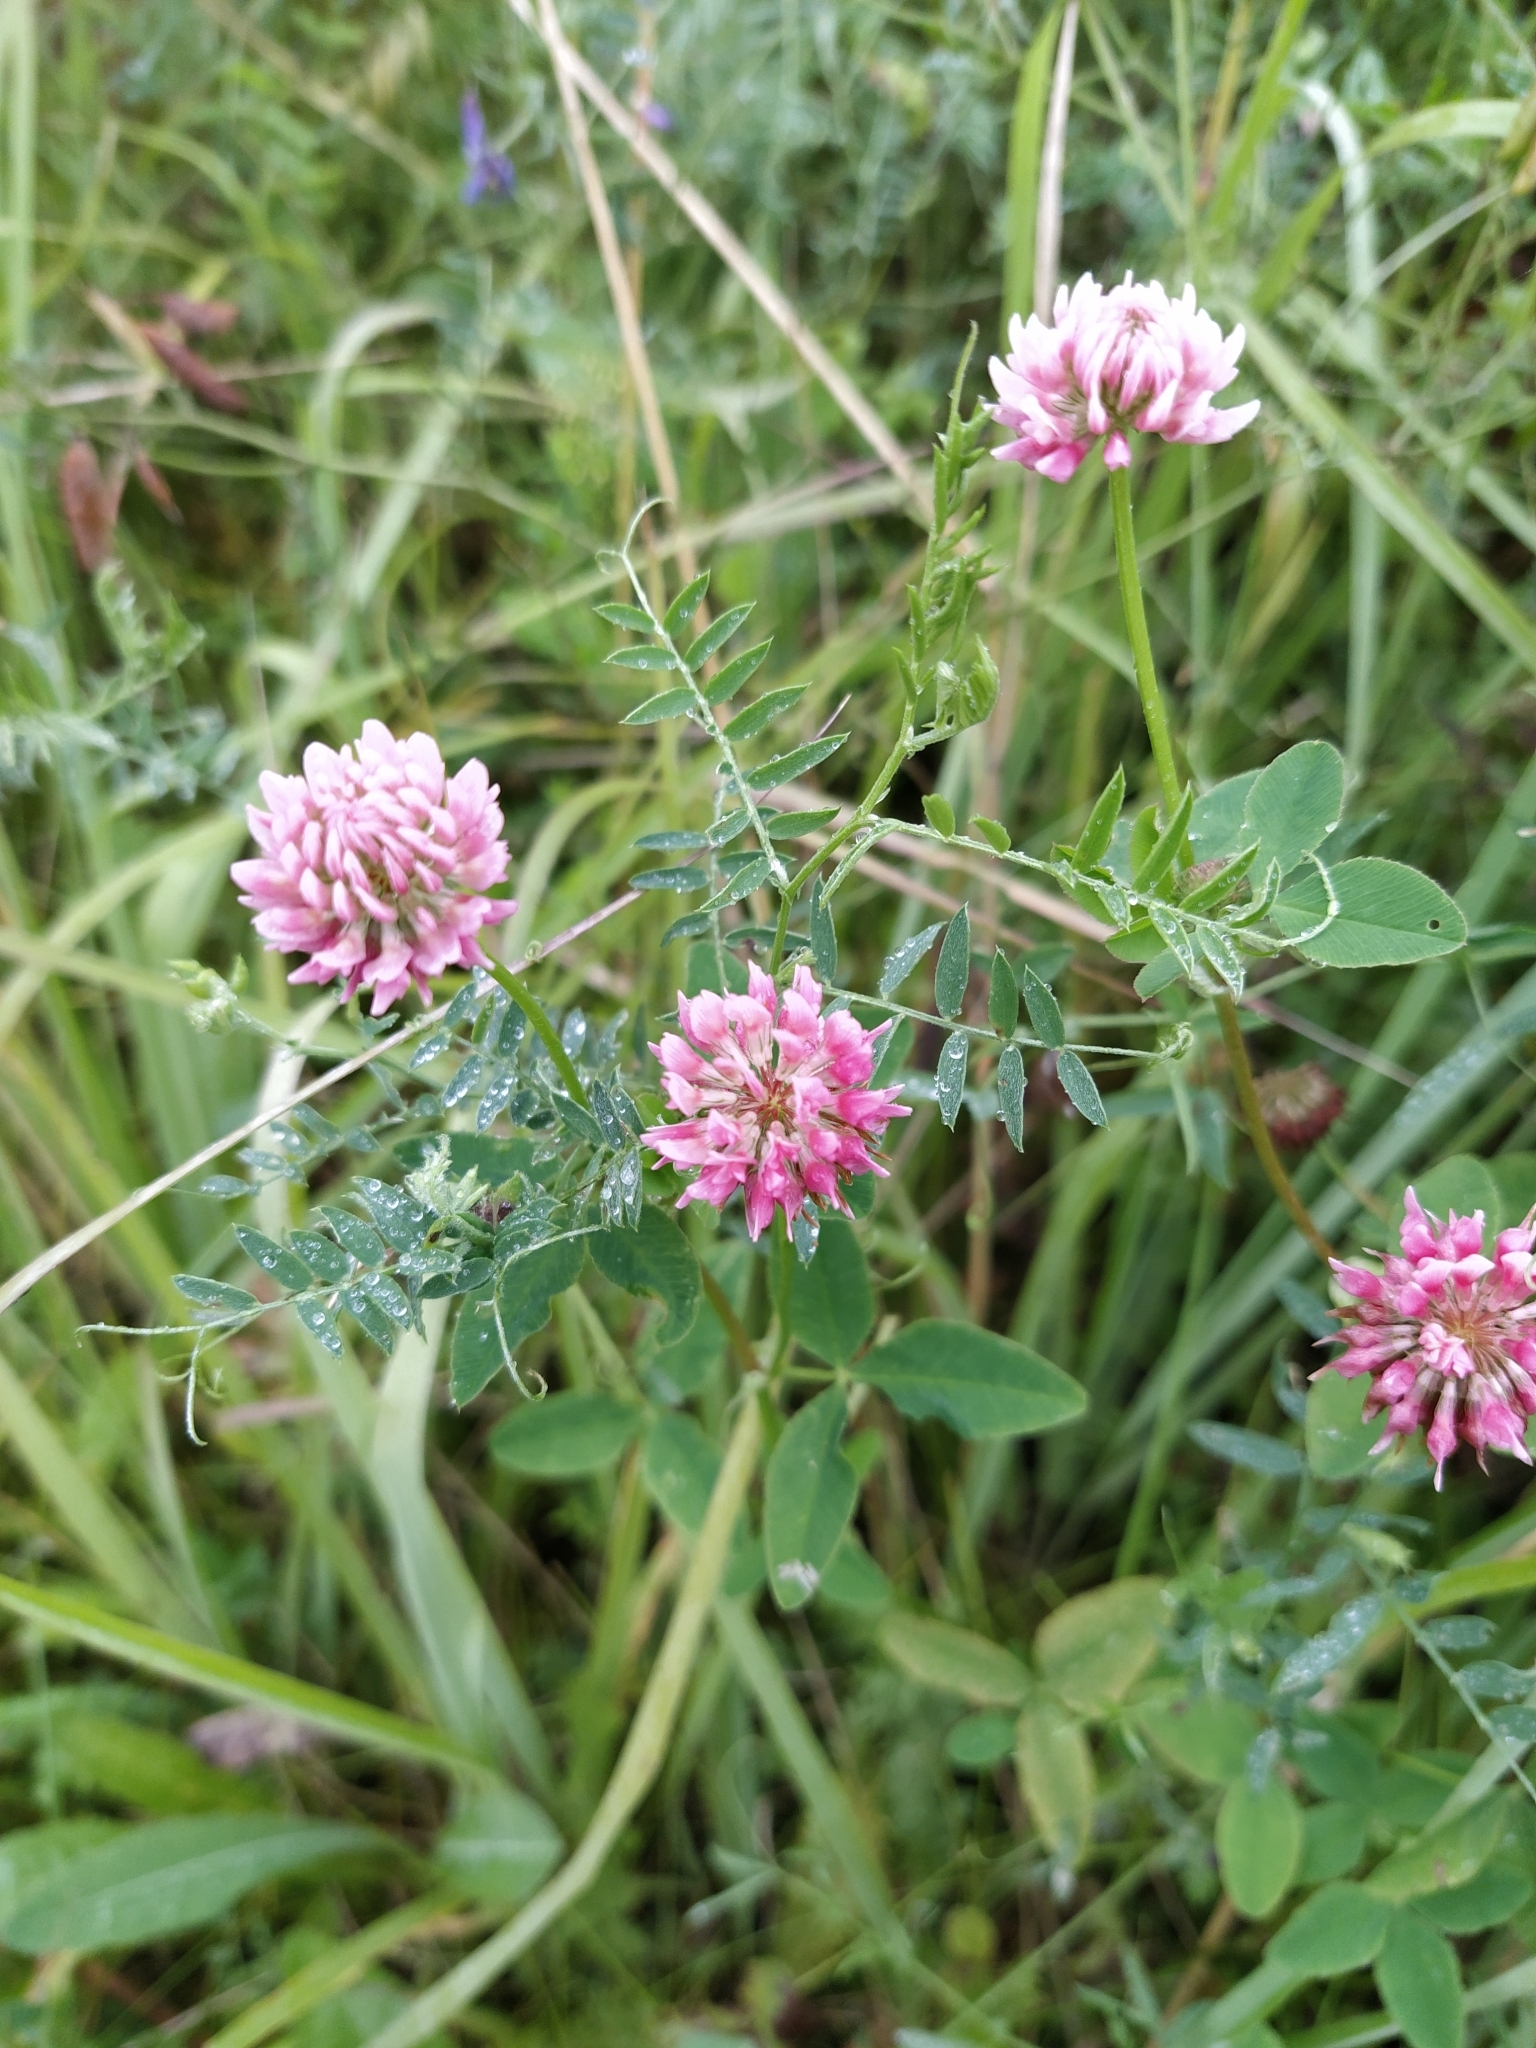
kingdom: Plantae
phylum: Tracheophyta
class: Magnoliopsida
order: Fabales
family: Fabaceae
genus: Trifolium
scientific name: Trifolium hybridum
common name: Alsike clover
